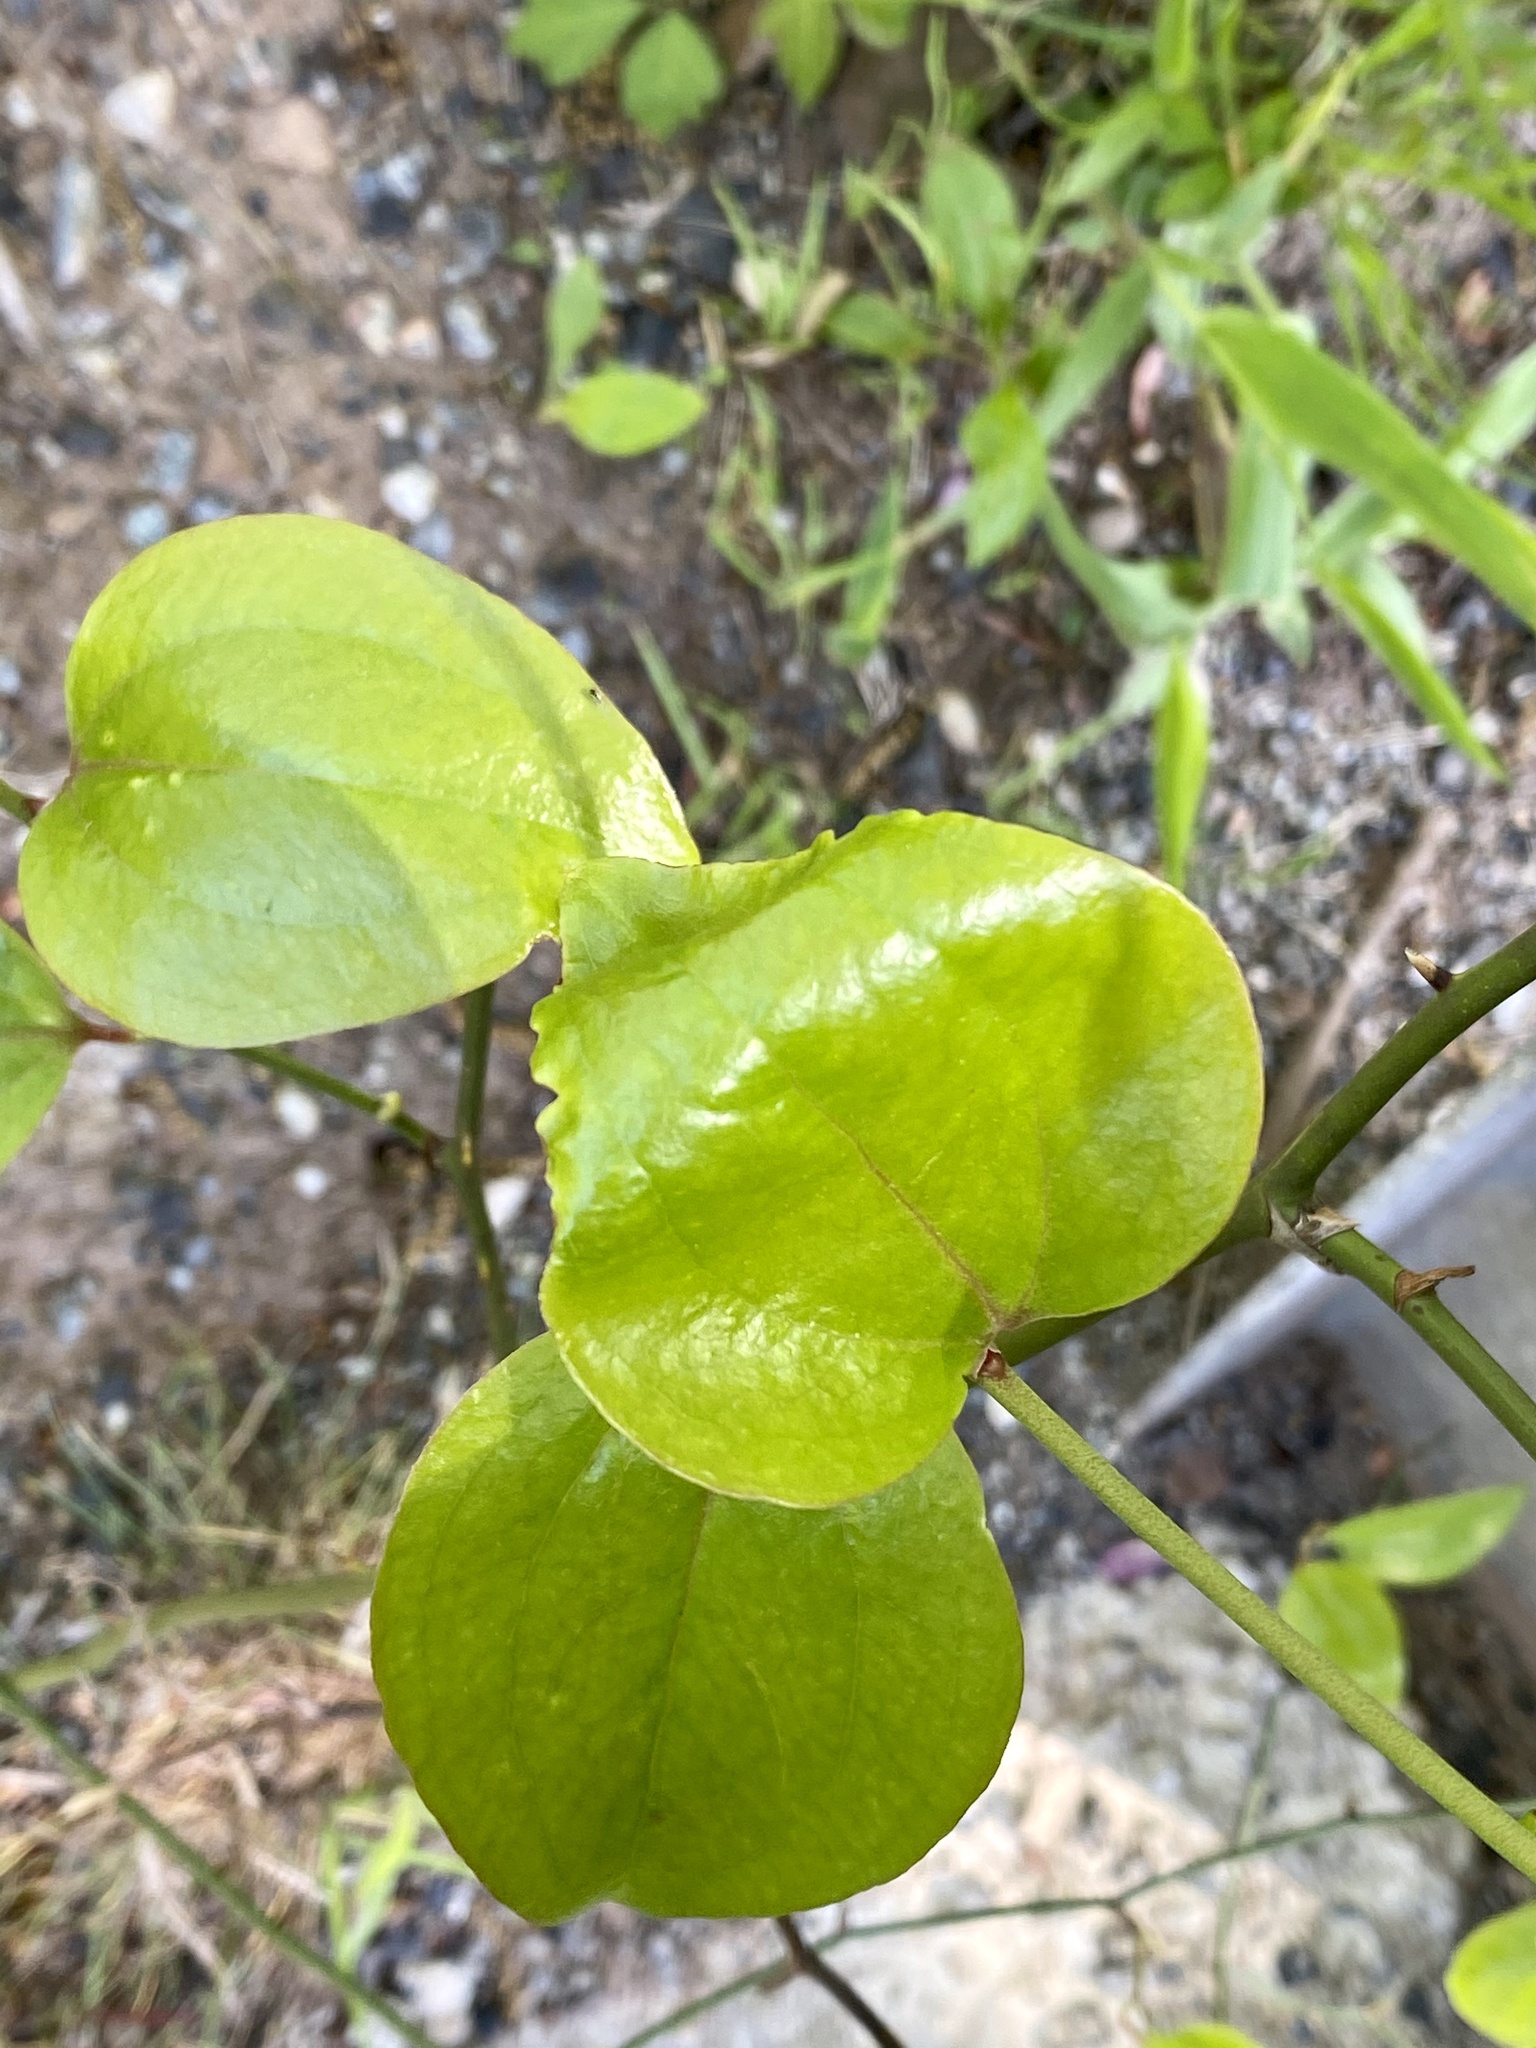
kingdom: Plantae
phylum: Tracheophyta
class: Liliopsida
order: Liliales
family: Smilacaceae
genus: Smilax
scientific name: Smilax rotundifolia
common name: Bullbriar
